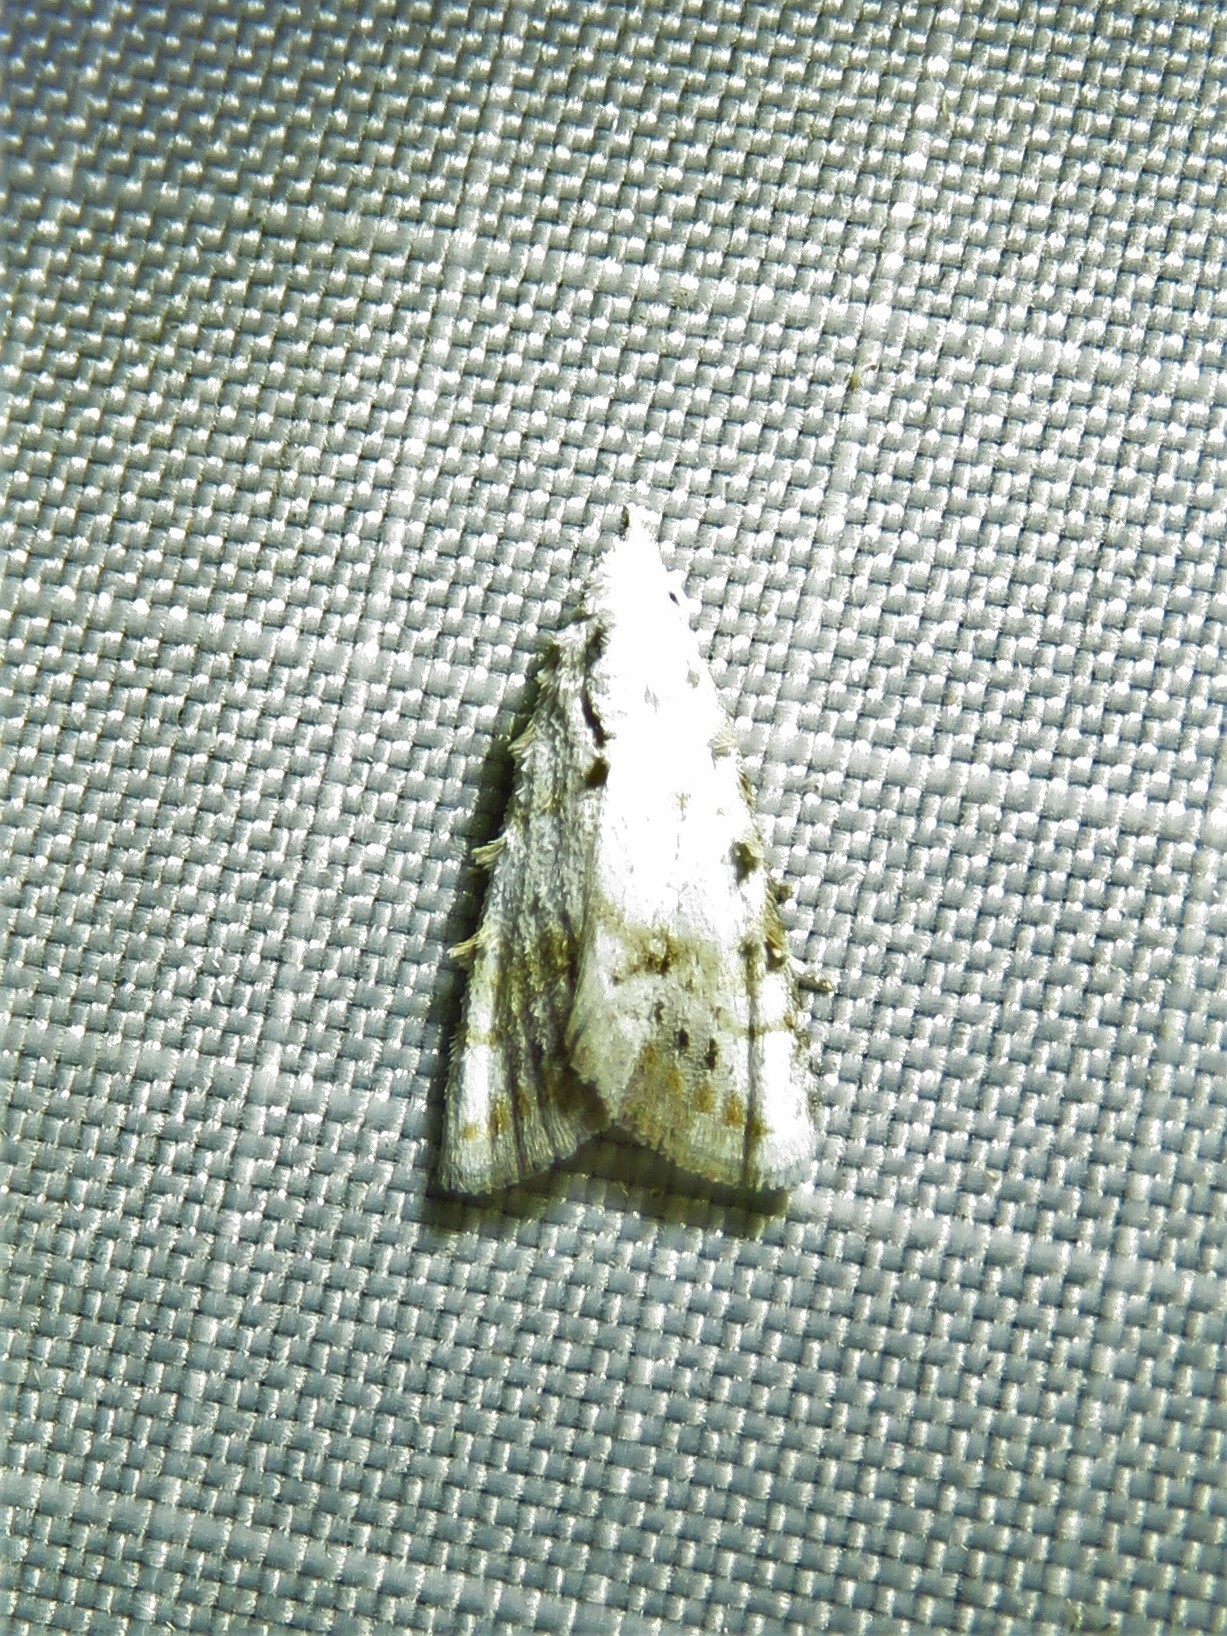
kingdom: Animalia
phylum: Arthropoda
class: Insecta
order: Lepidoptera
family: Nolidae
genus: Nola
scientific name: Nola cereella
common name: Sorghum webworm moth
